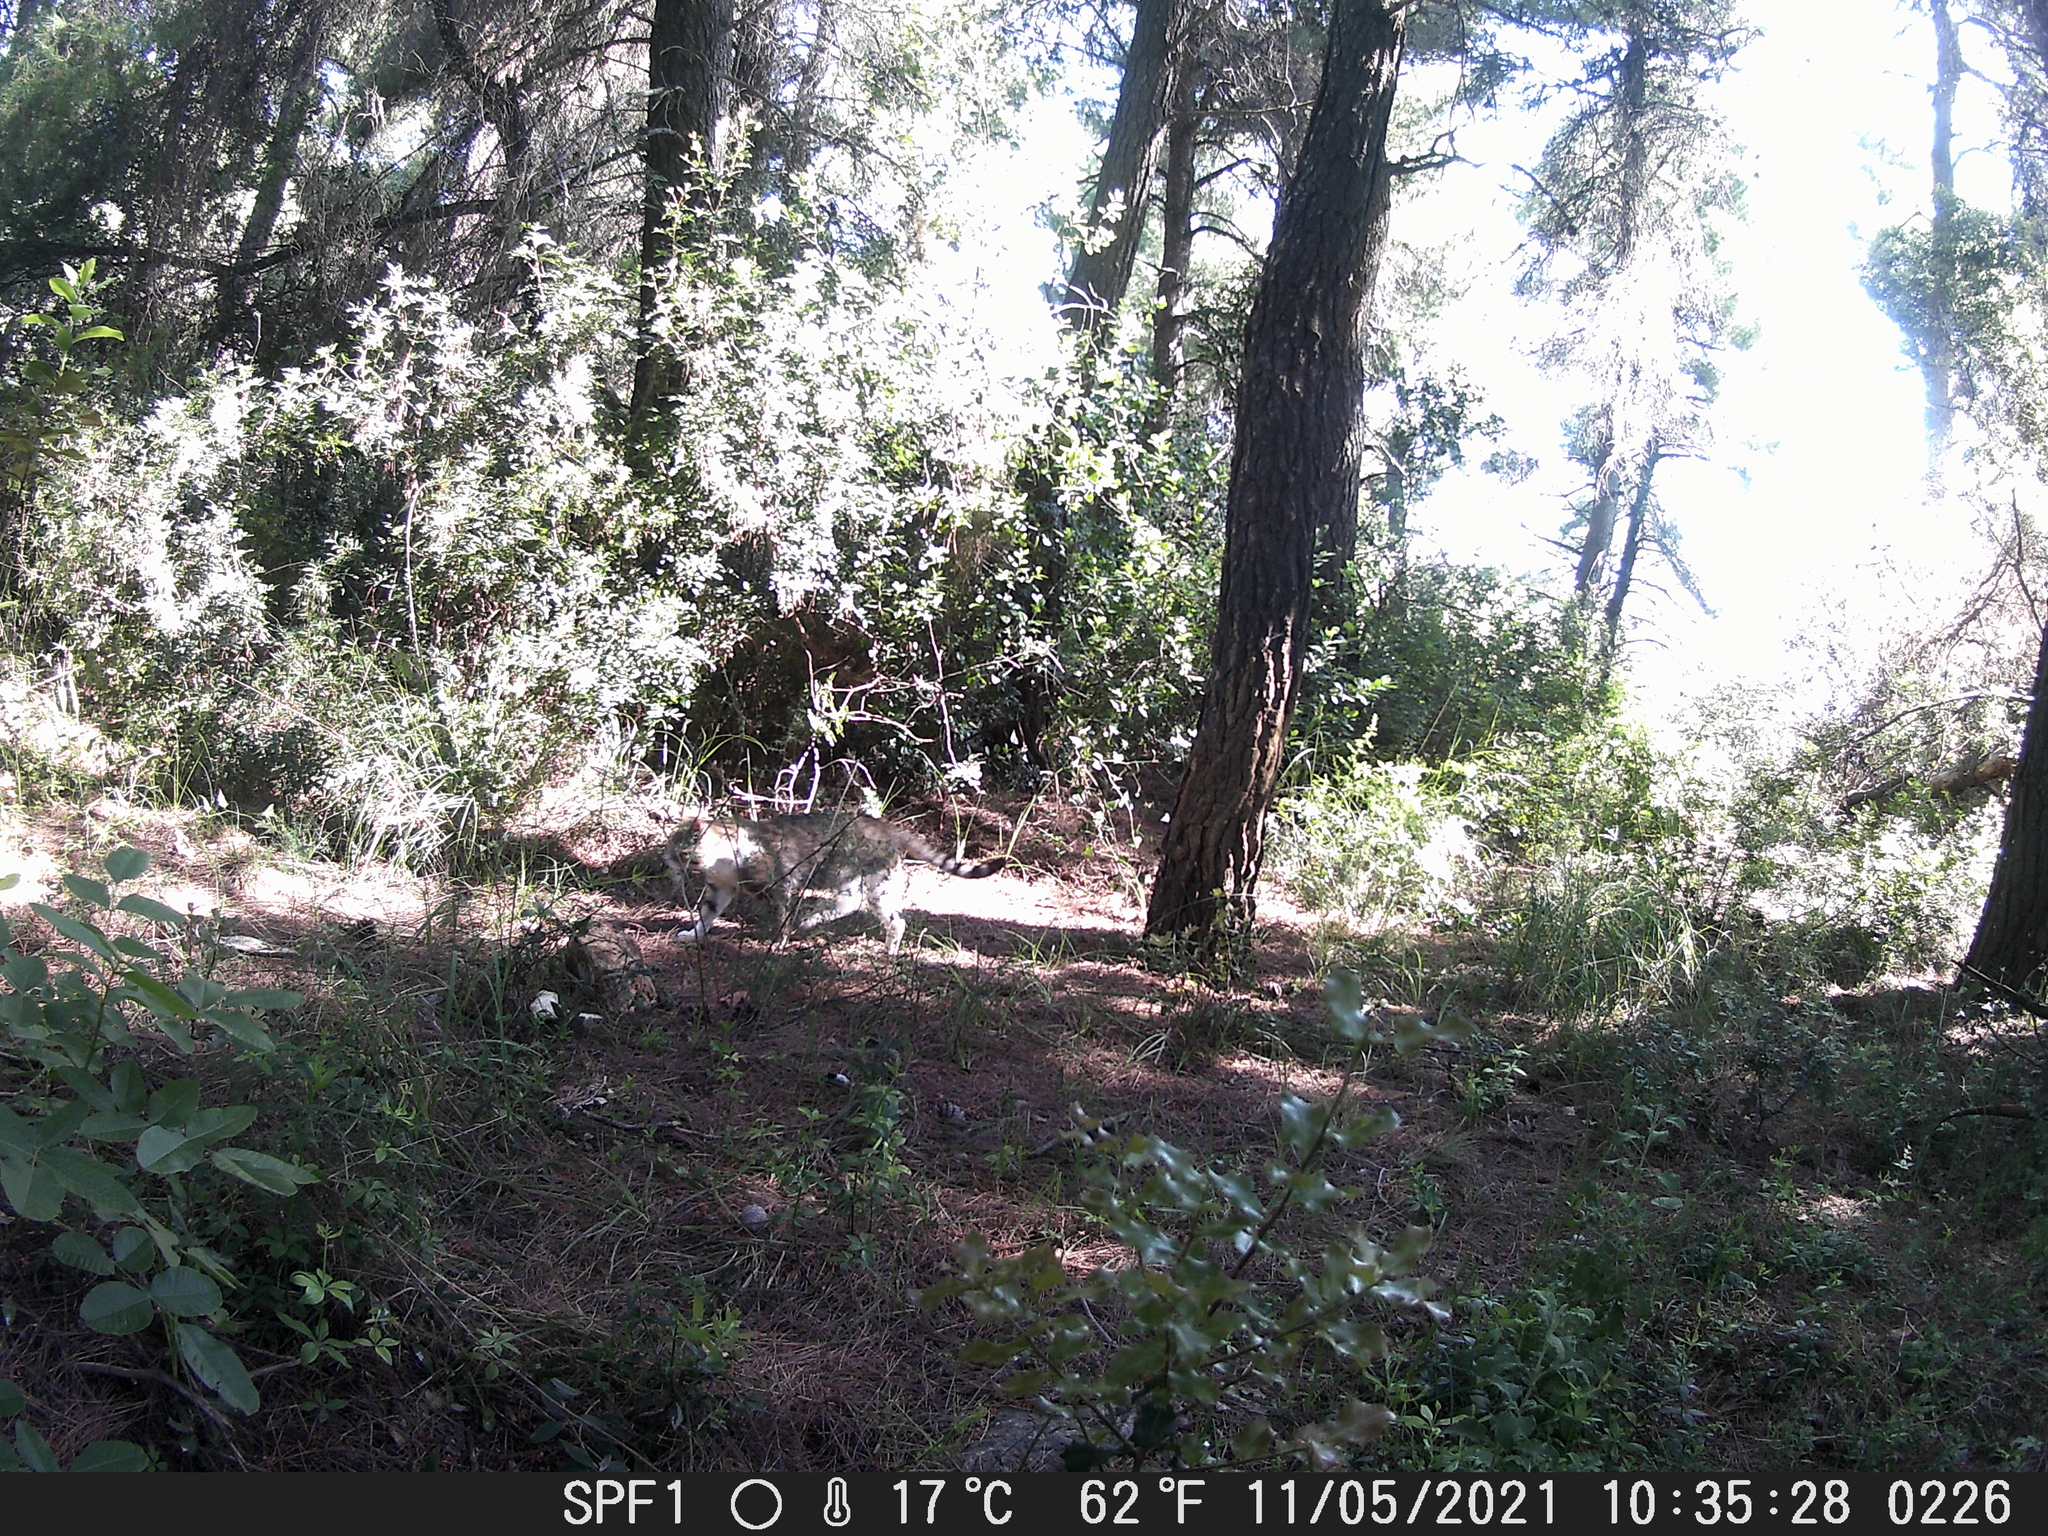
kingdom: Animalia
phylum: Chordata
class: Mammalia
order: Carnivora
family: Felidae
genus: Felis
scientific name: Felis catus
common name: Domestic cat
